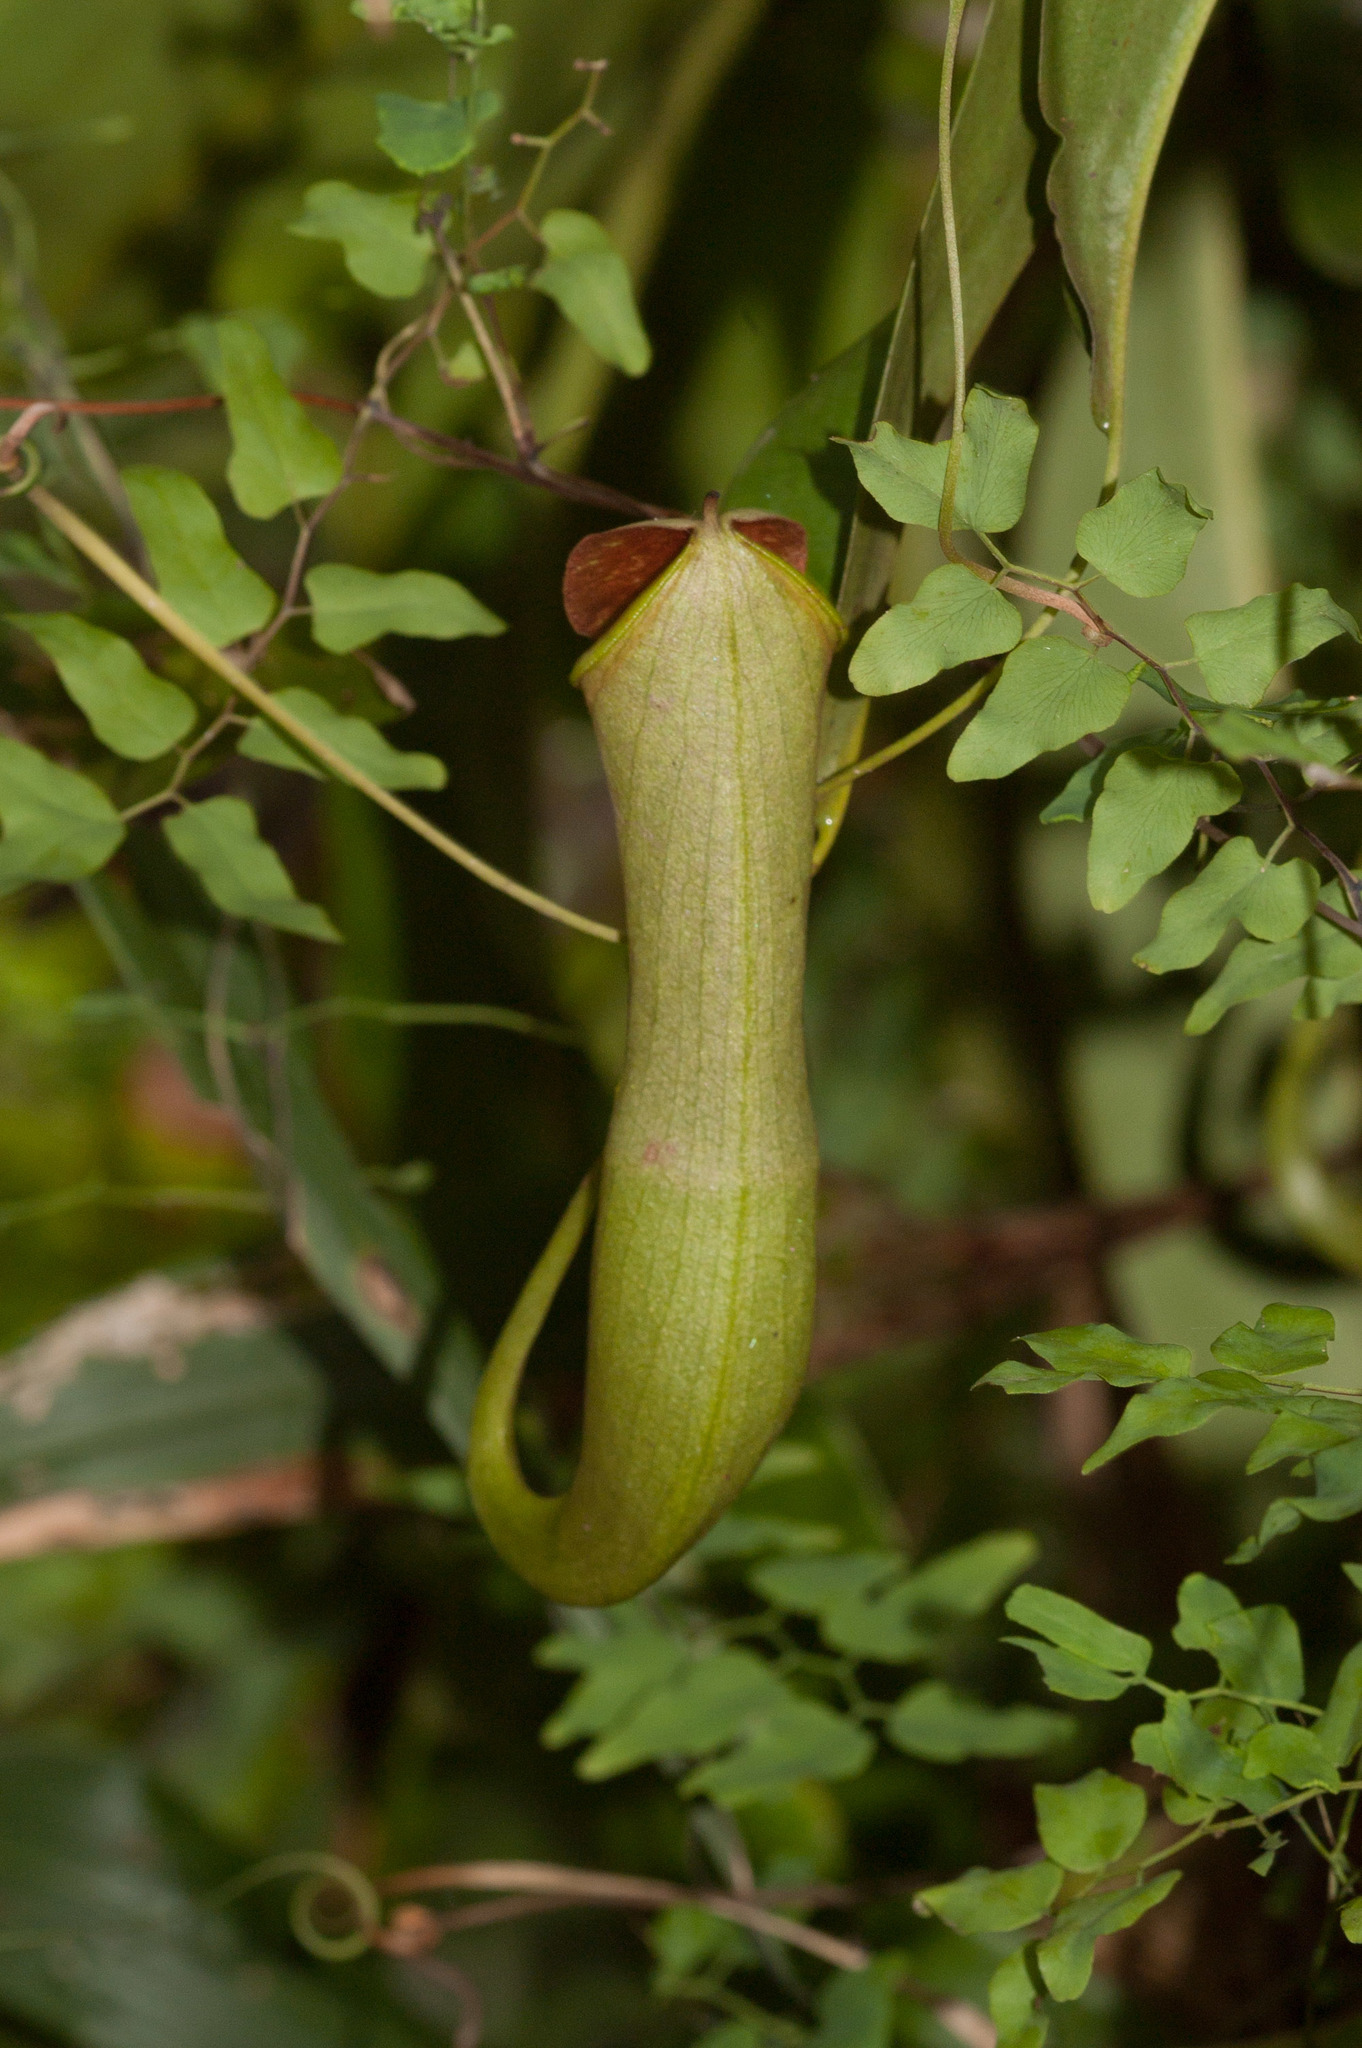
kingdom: Plantae
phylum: Tracheophyta
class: Magnoliopsida
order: Caryophyllales
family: Nepenthaceae
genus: Nepenthes
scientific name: Nepenthes mirabilis
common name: Tropical pitcherplant
